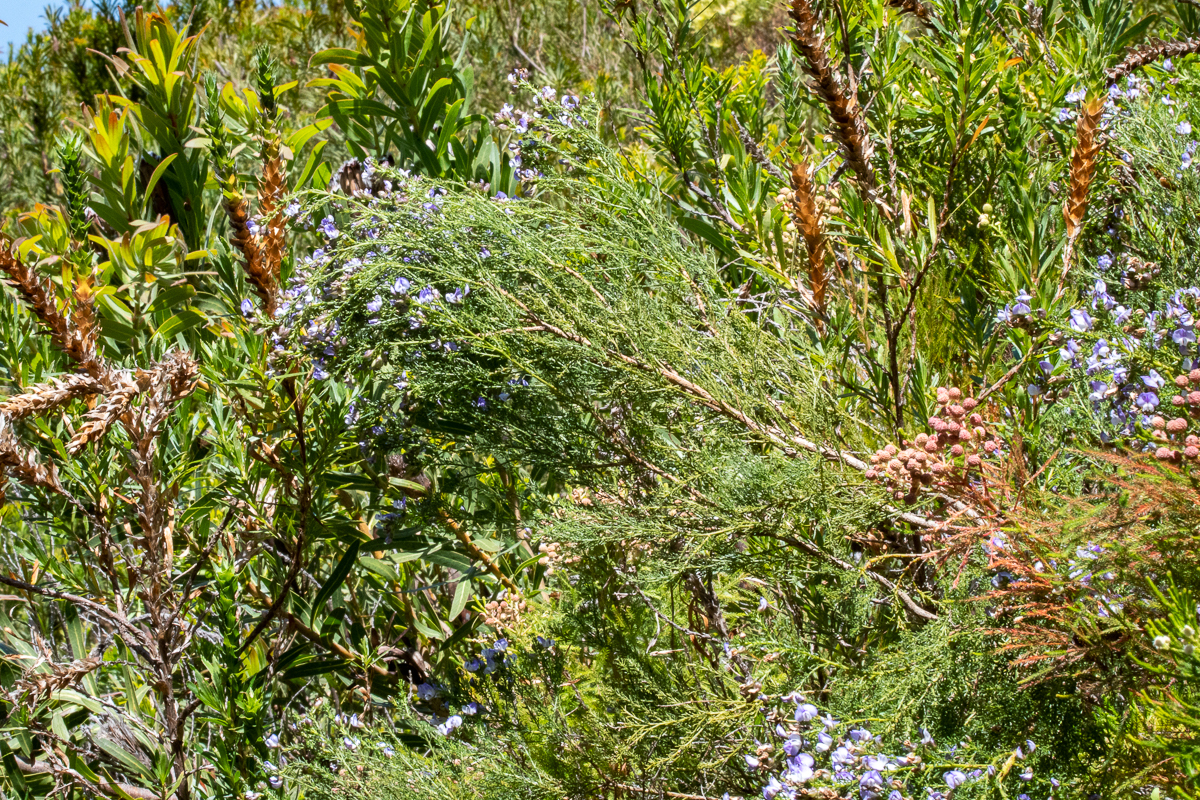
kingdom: Plantae
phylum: Tracheophyta
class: Magnoliopsida
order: Fabales
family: Fabaceae
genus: Psoralea
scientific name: Psoralea aculeata
